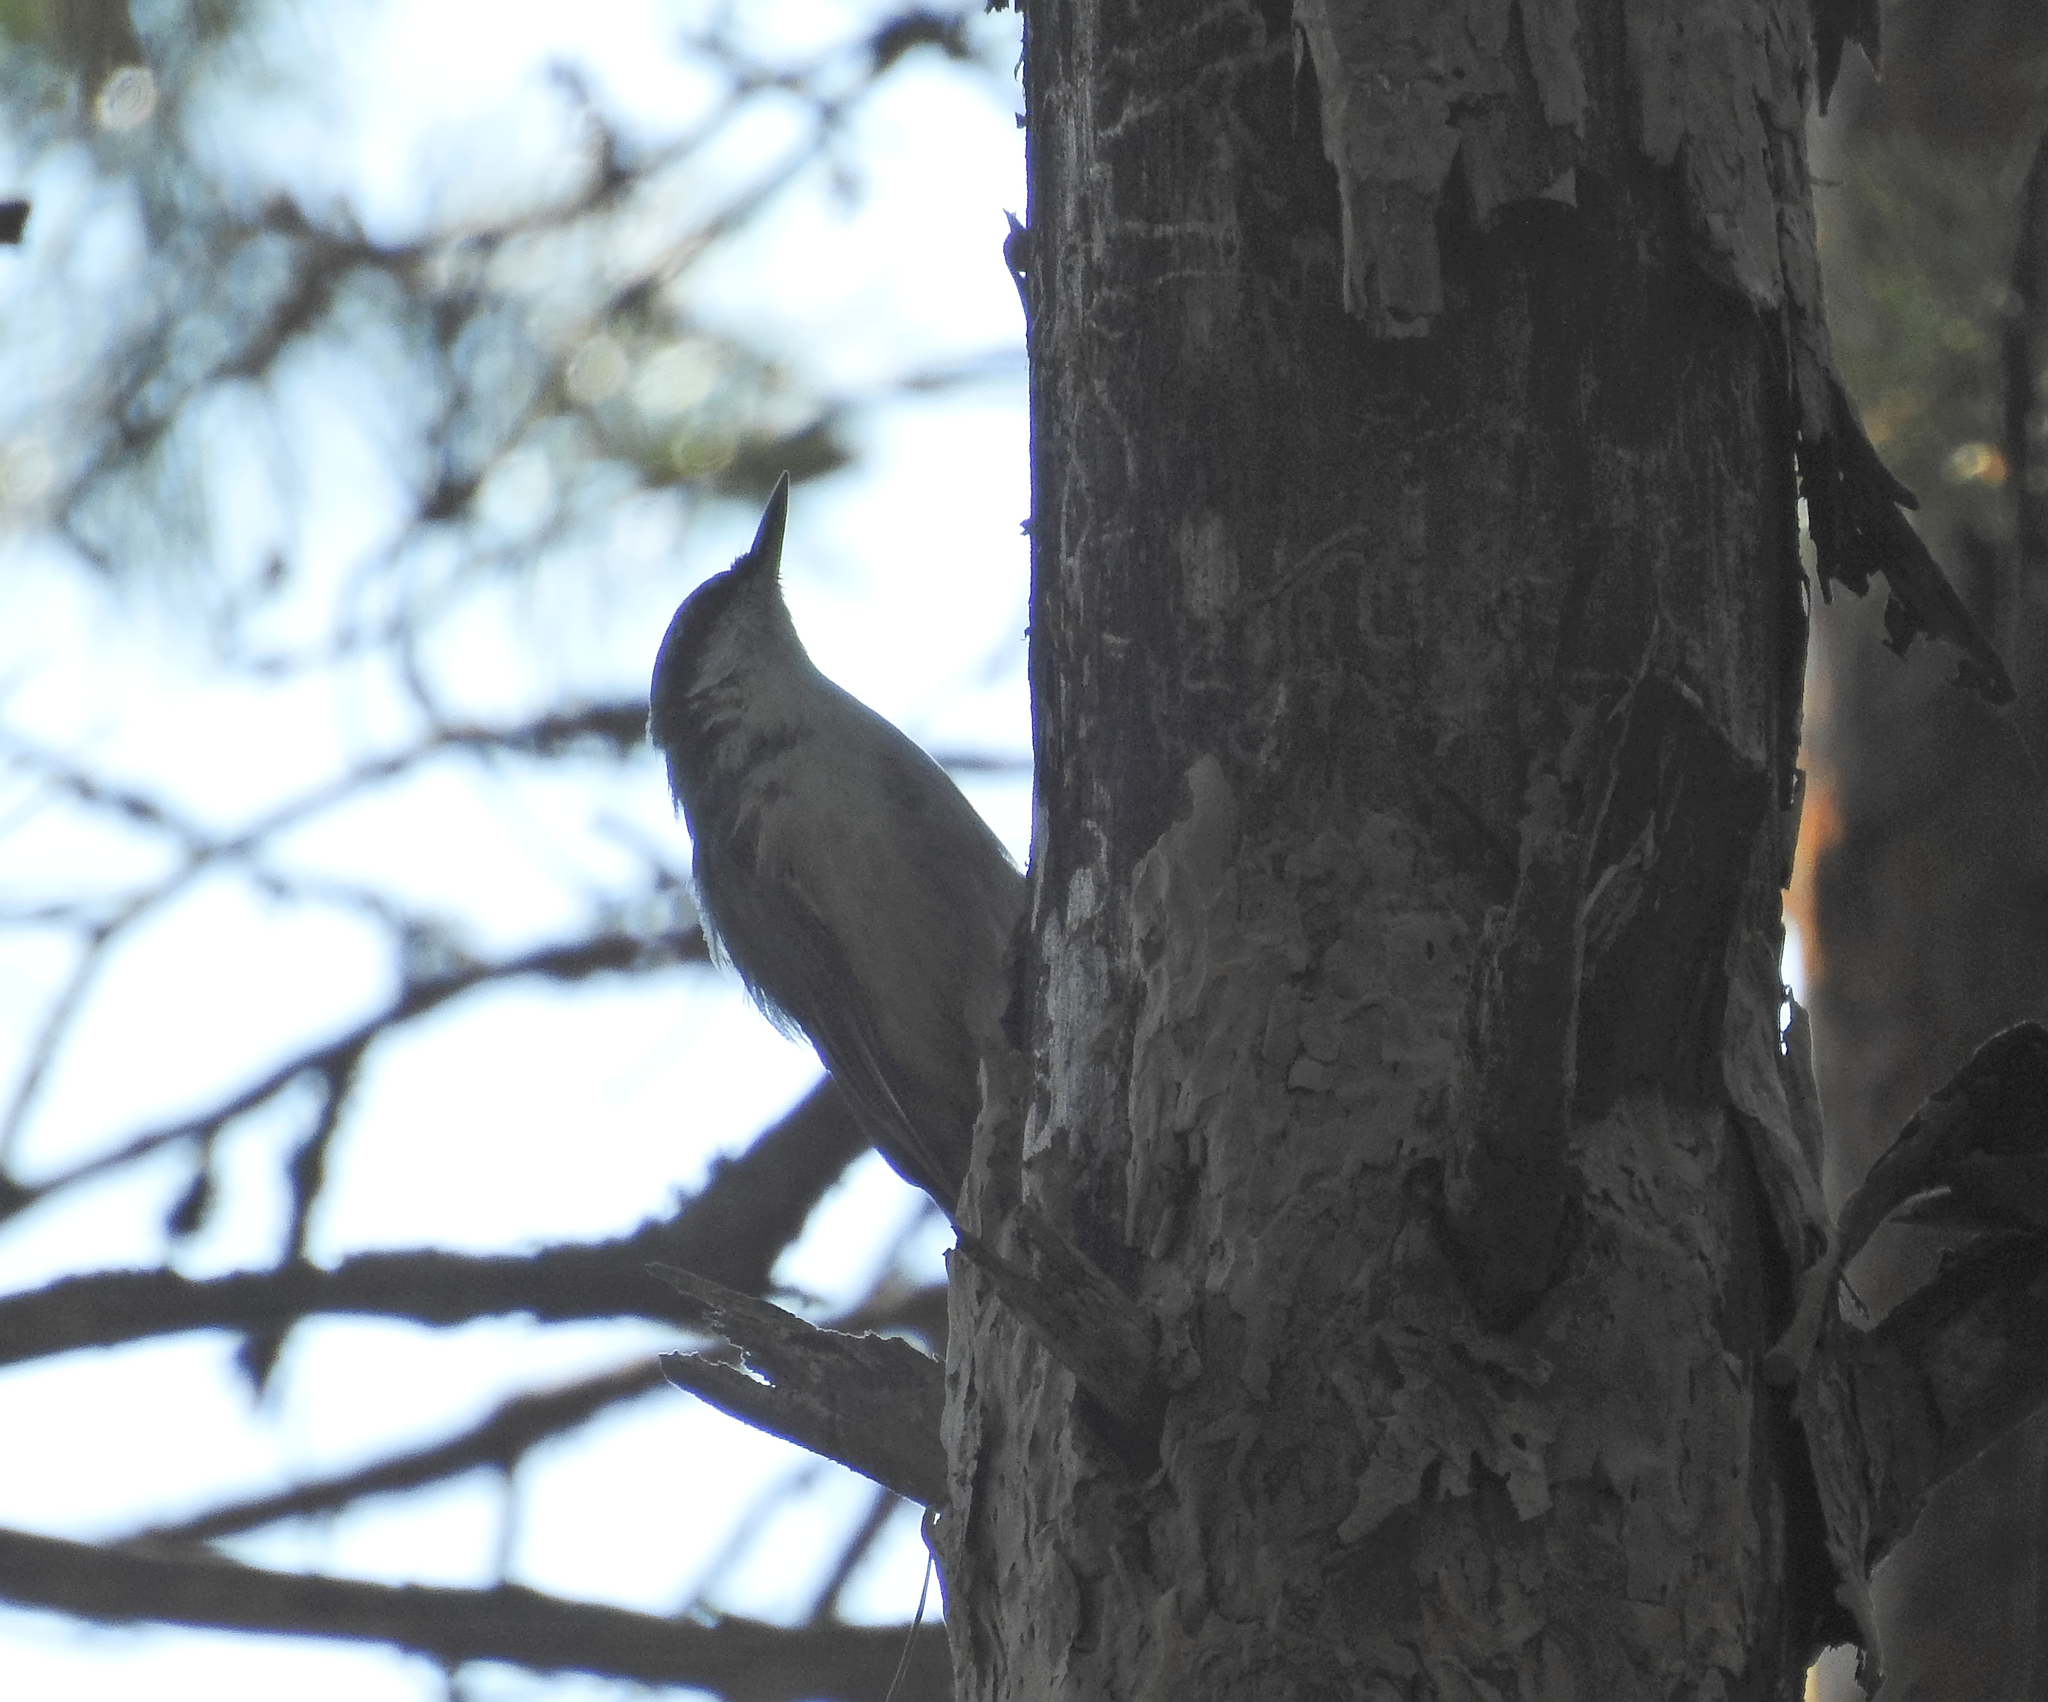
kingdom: Animalia
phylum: Chordata
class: Aves
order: Passeriformes
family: Sittidae
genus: Sitta
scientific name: Sitta europaea
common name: Eurasian nuthatch
